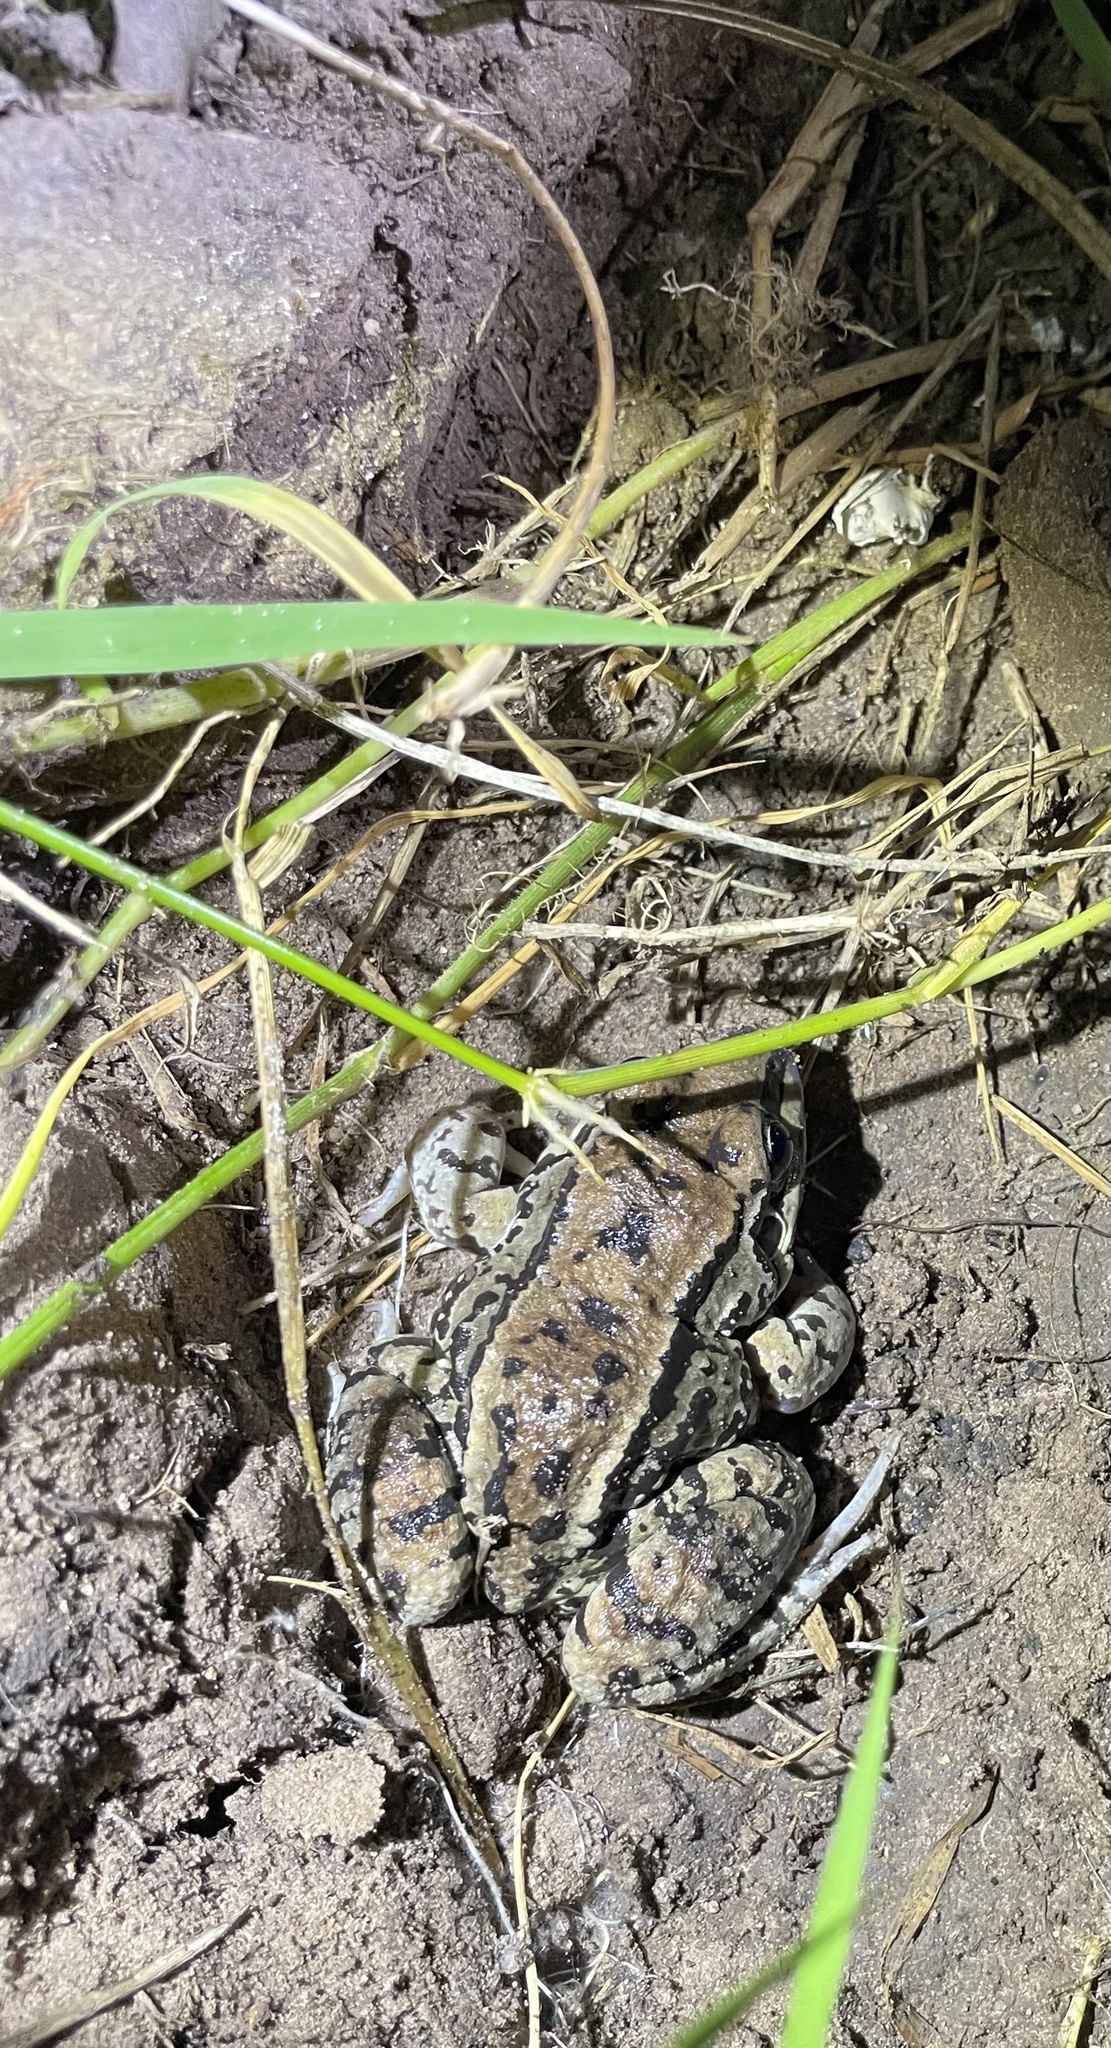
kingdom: Animalia
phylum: Chordata
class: Amphibia
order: Anura
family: Leptodactylidae
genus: Leptodactylus
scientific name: Leptodactylus mystacinus
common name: Moustached frog
